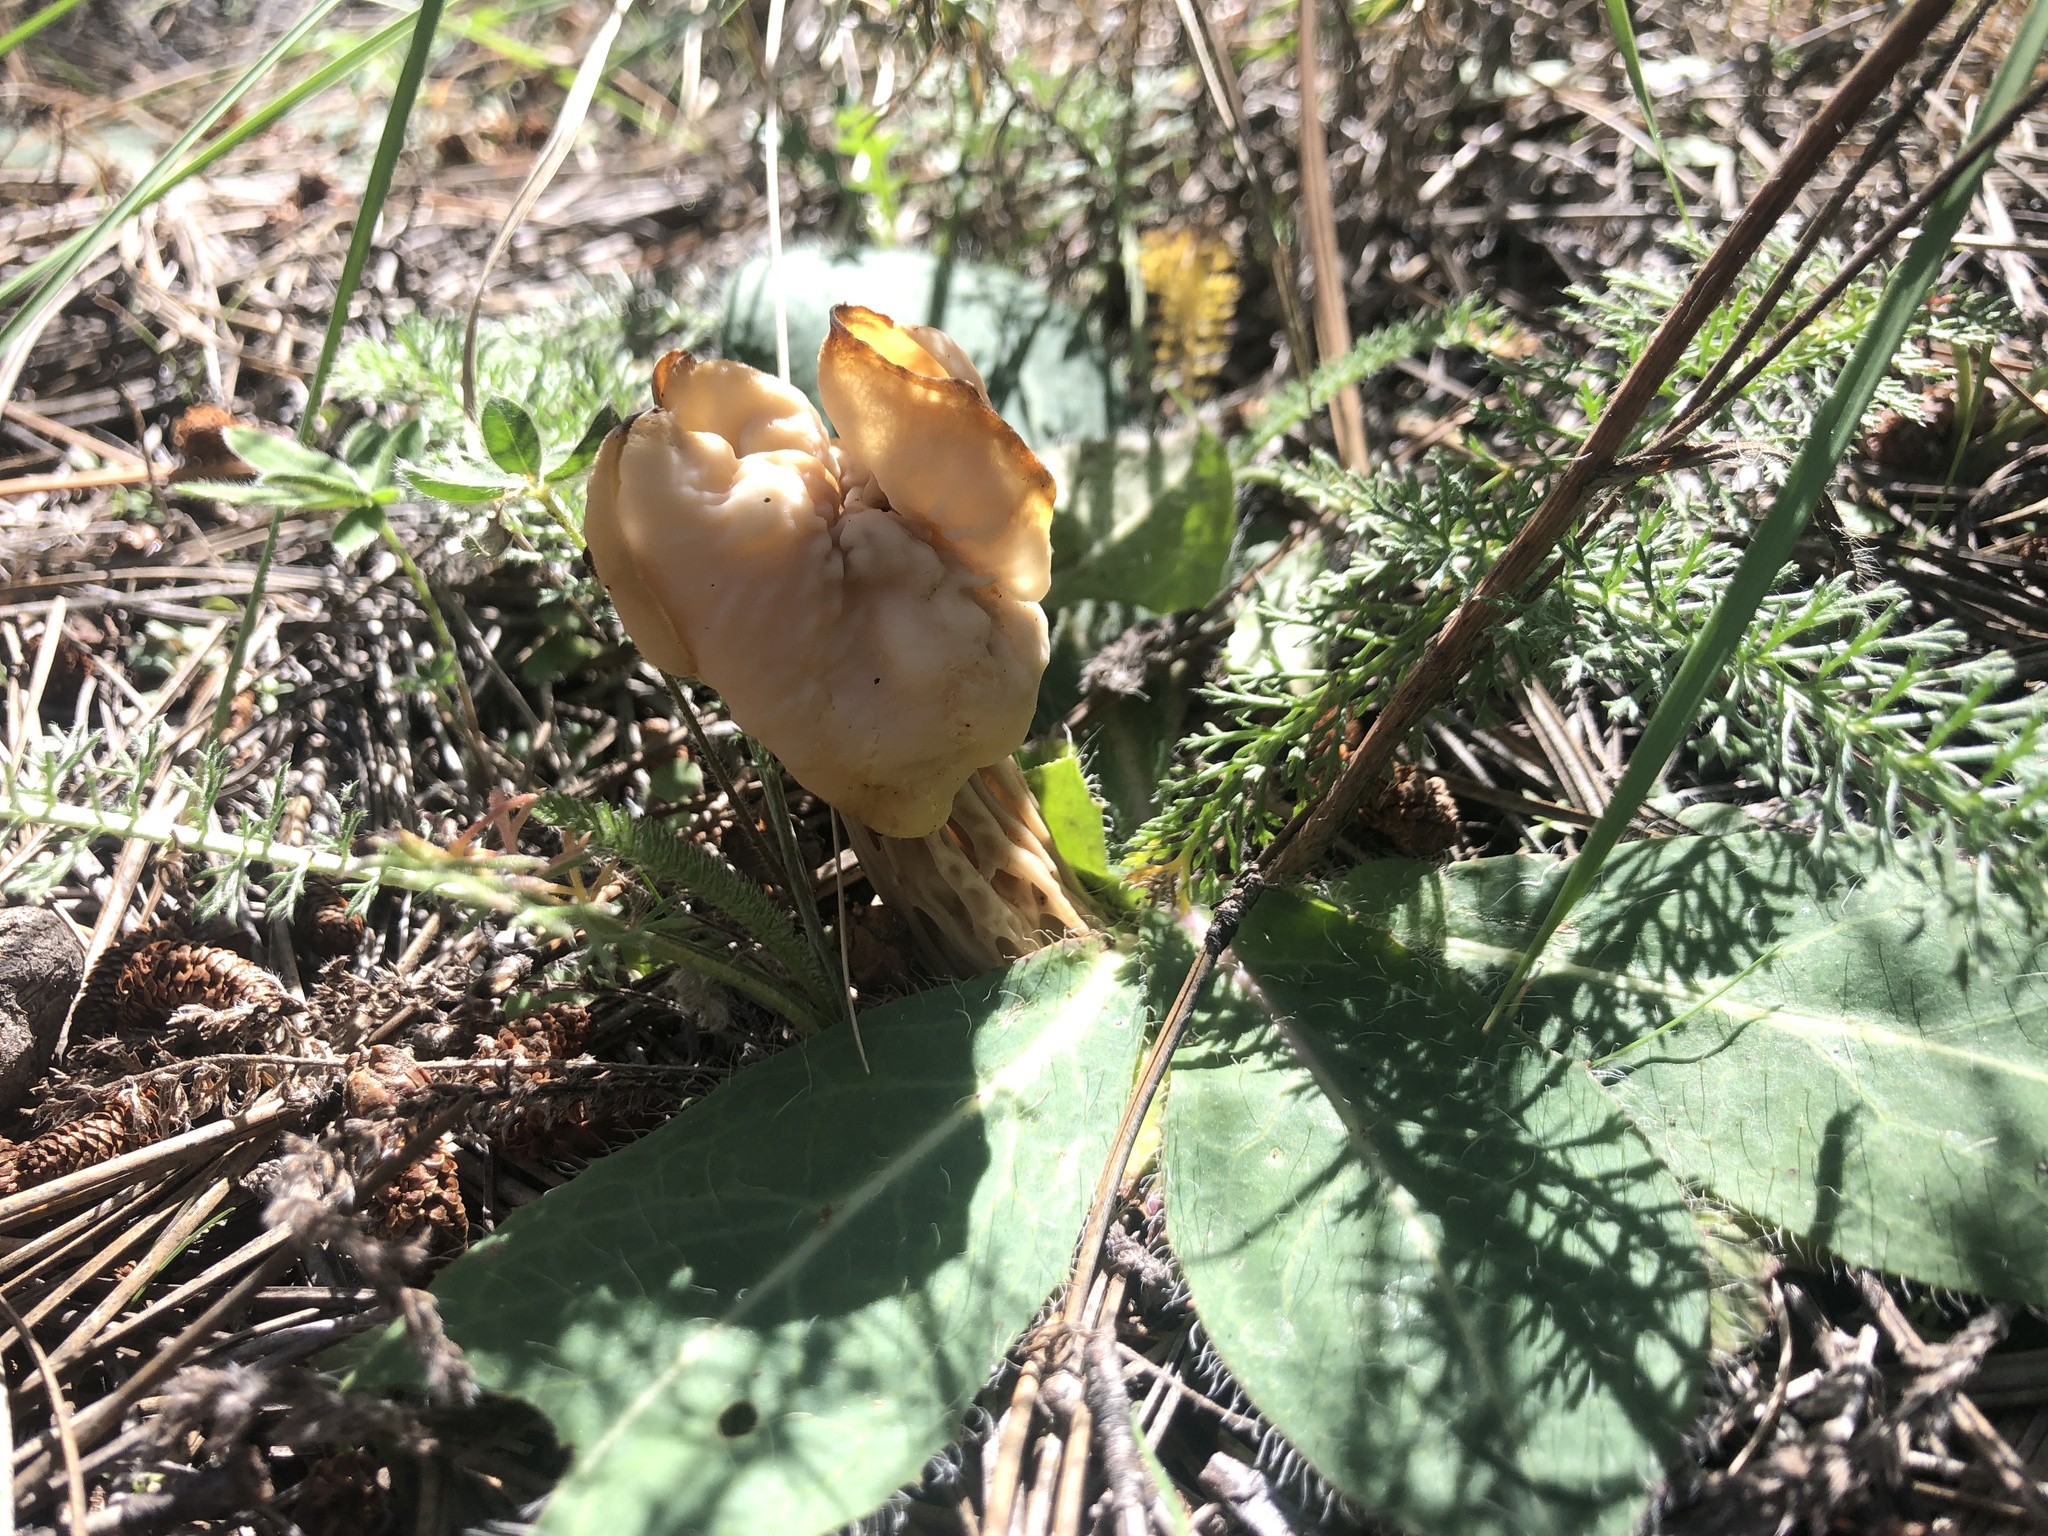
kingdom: Fungi
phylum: Ascomycota
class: Pezizomycetes
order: Pezizales
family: Helvellaceae
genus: Helvella
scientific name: Helvella crispa
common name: White saddle
